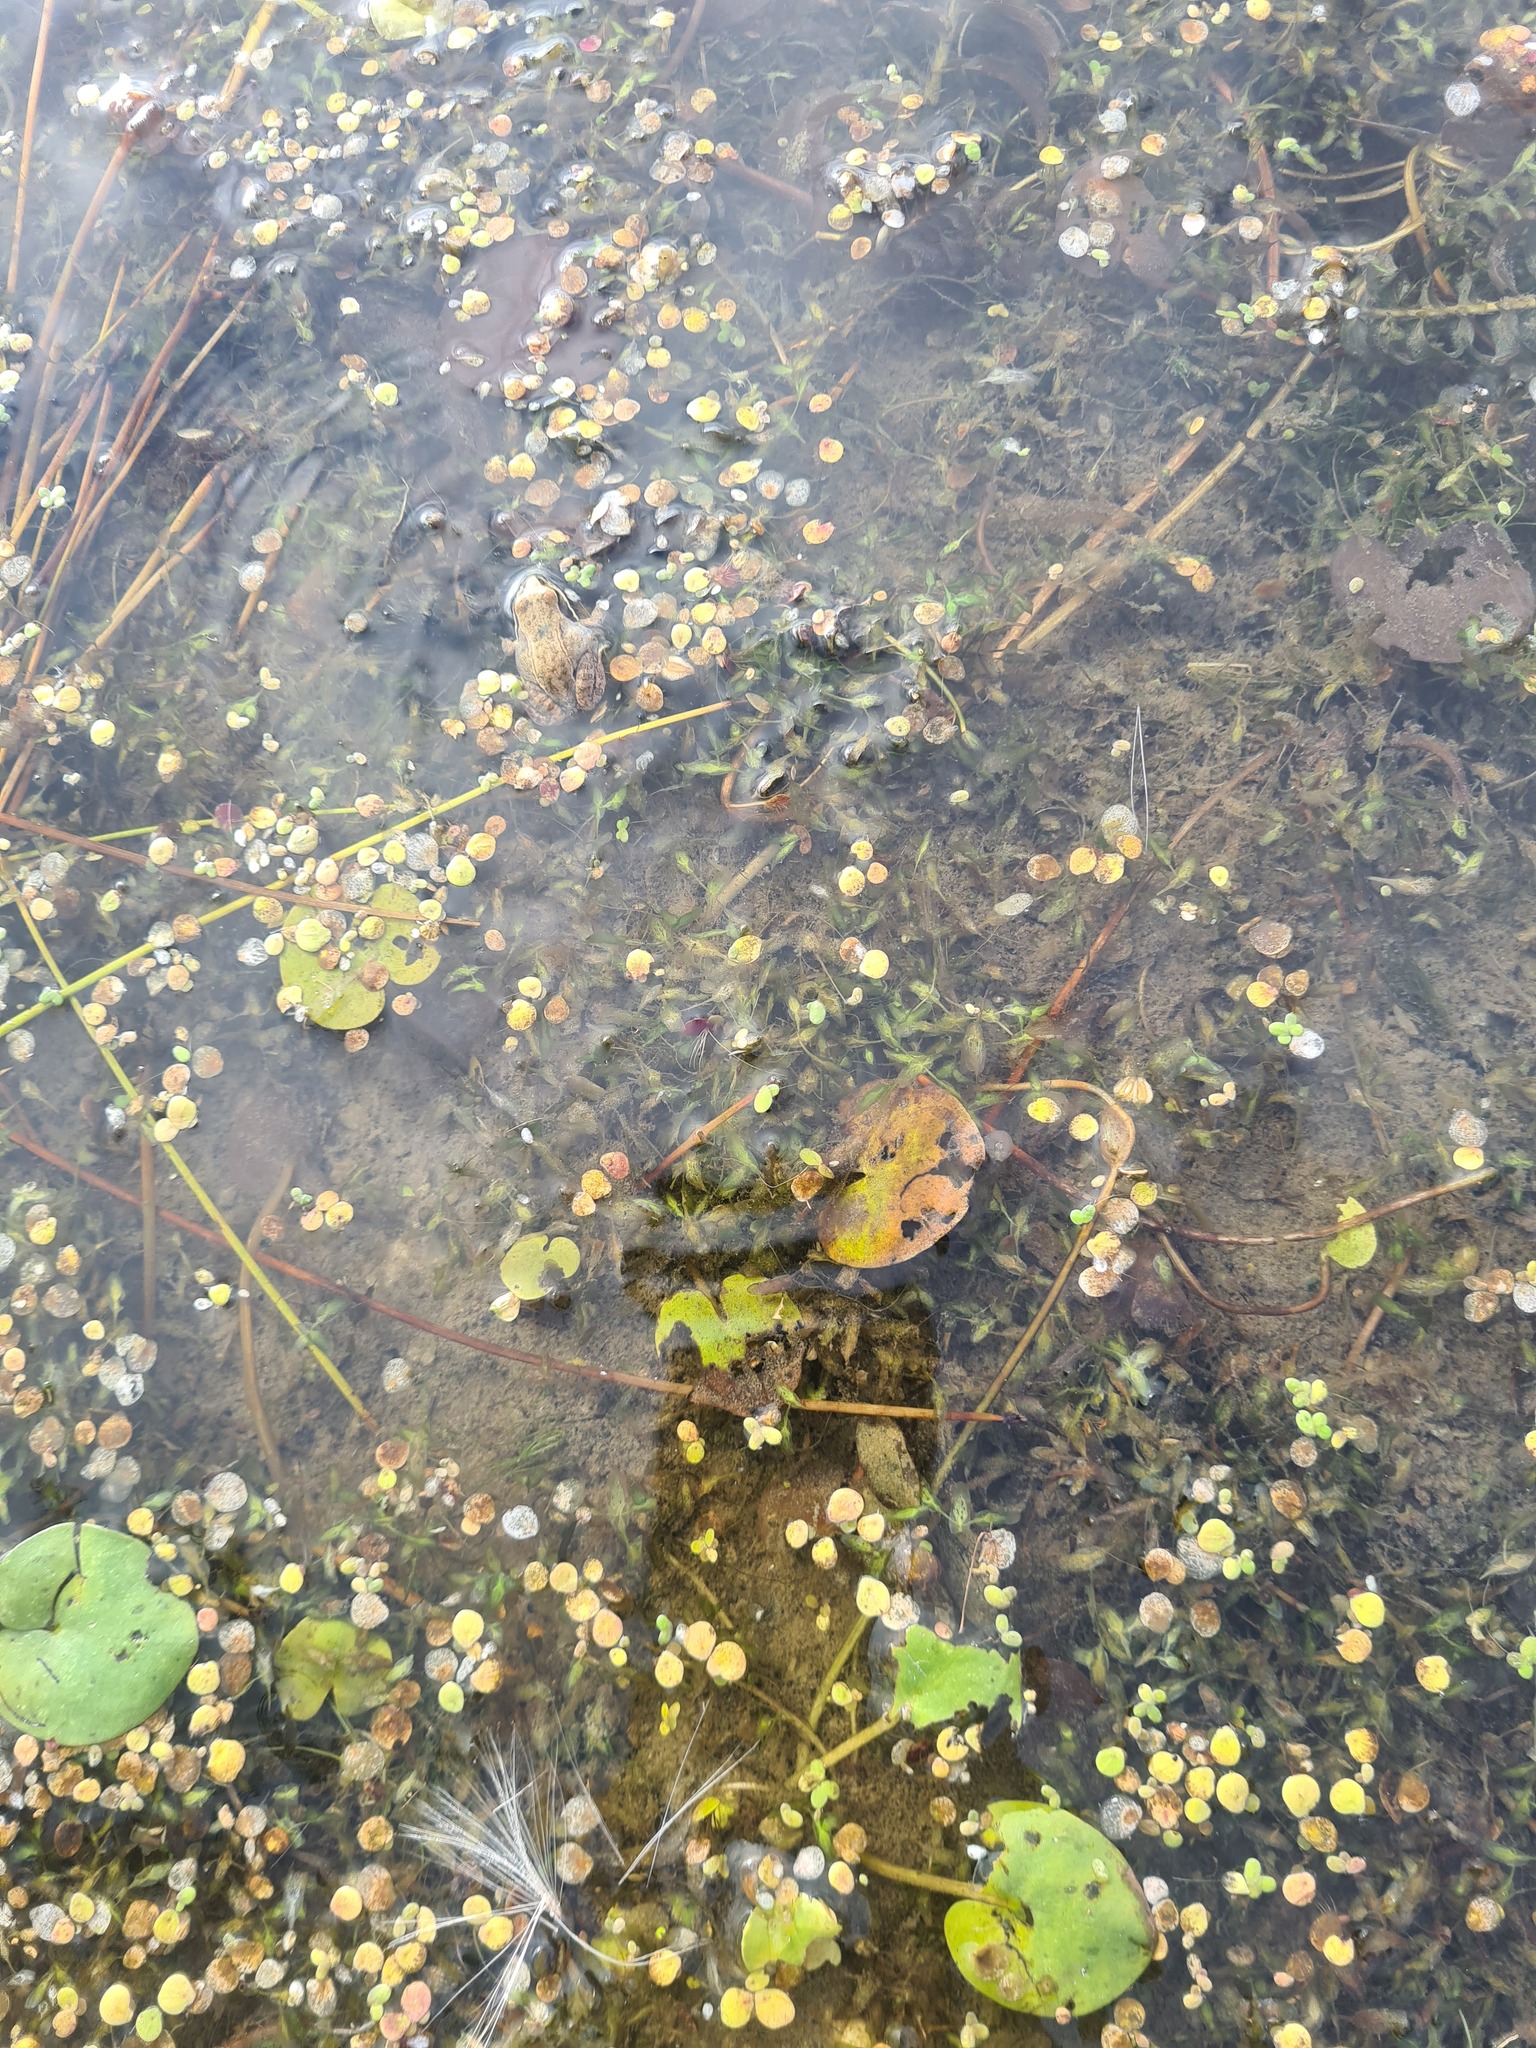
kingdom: Animalia
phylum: Chordata
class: Amphibia
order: Anura
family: Ranidae
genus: Rana
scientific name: Rana arvalis
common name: Moor frog
